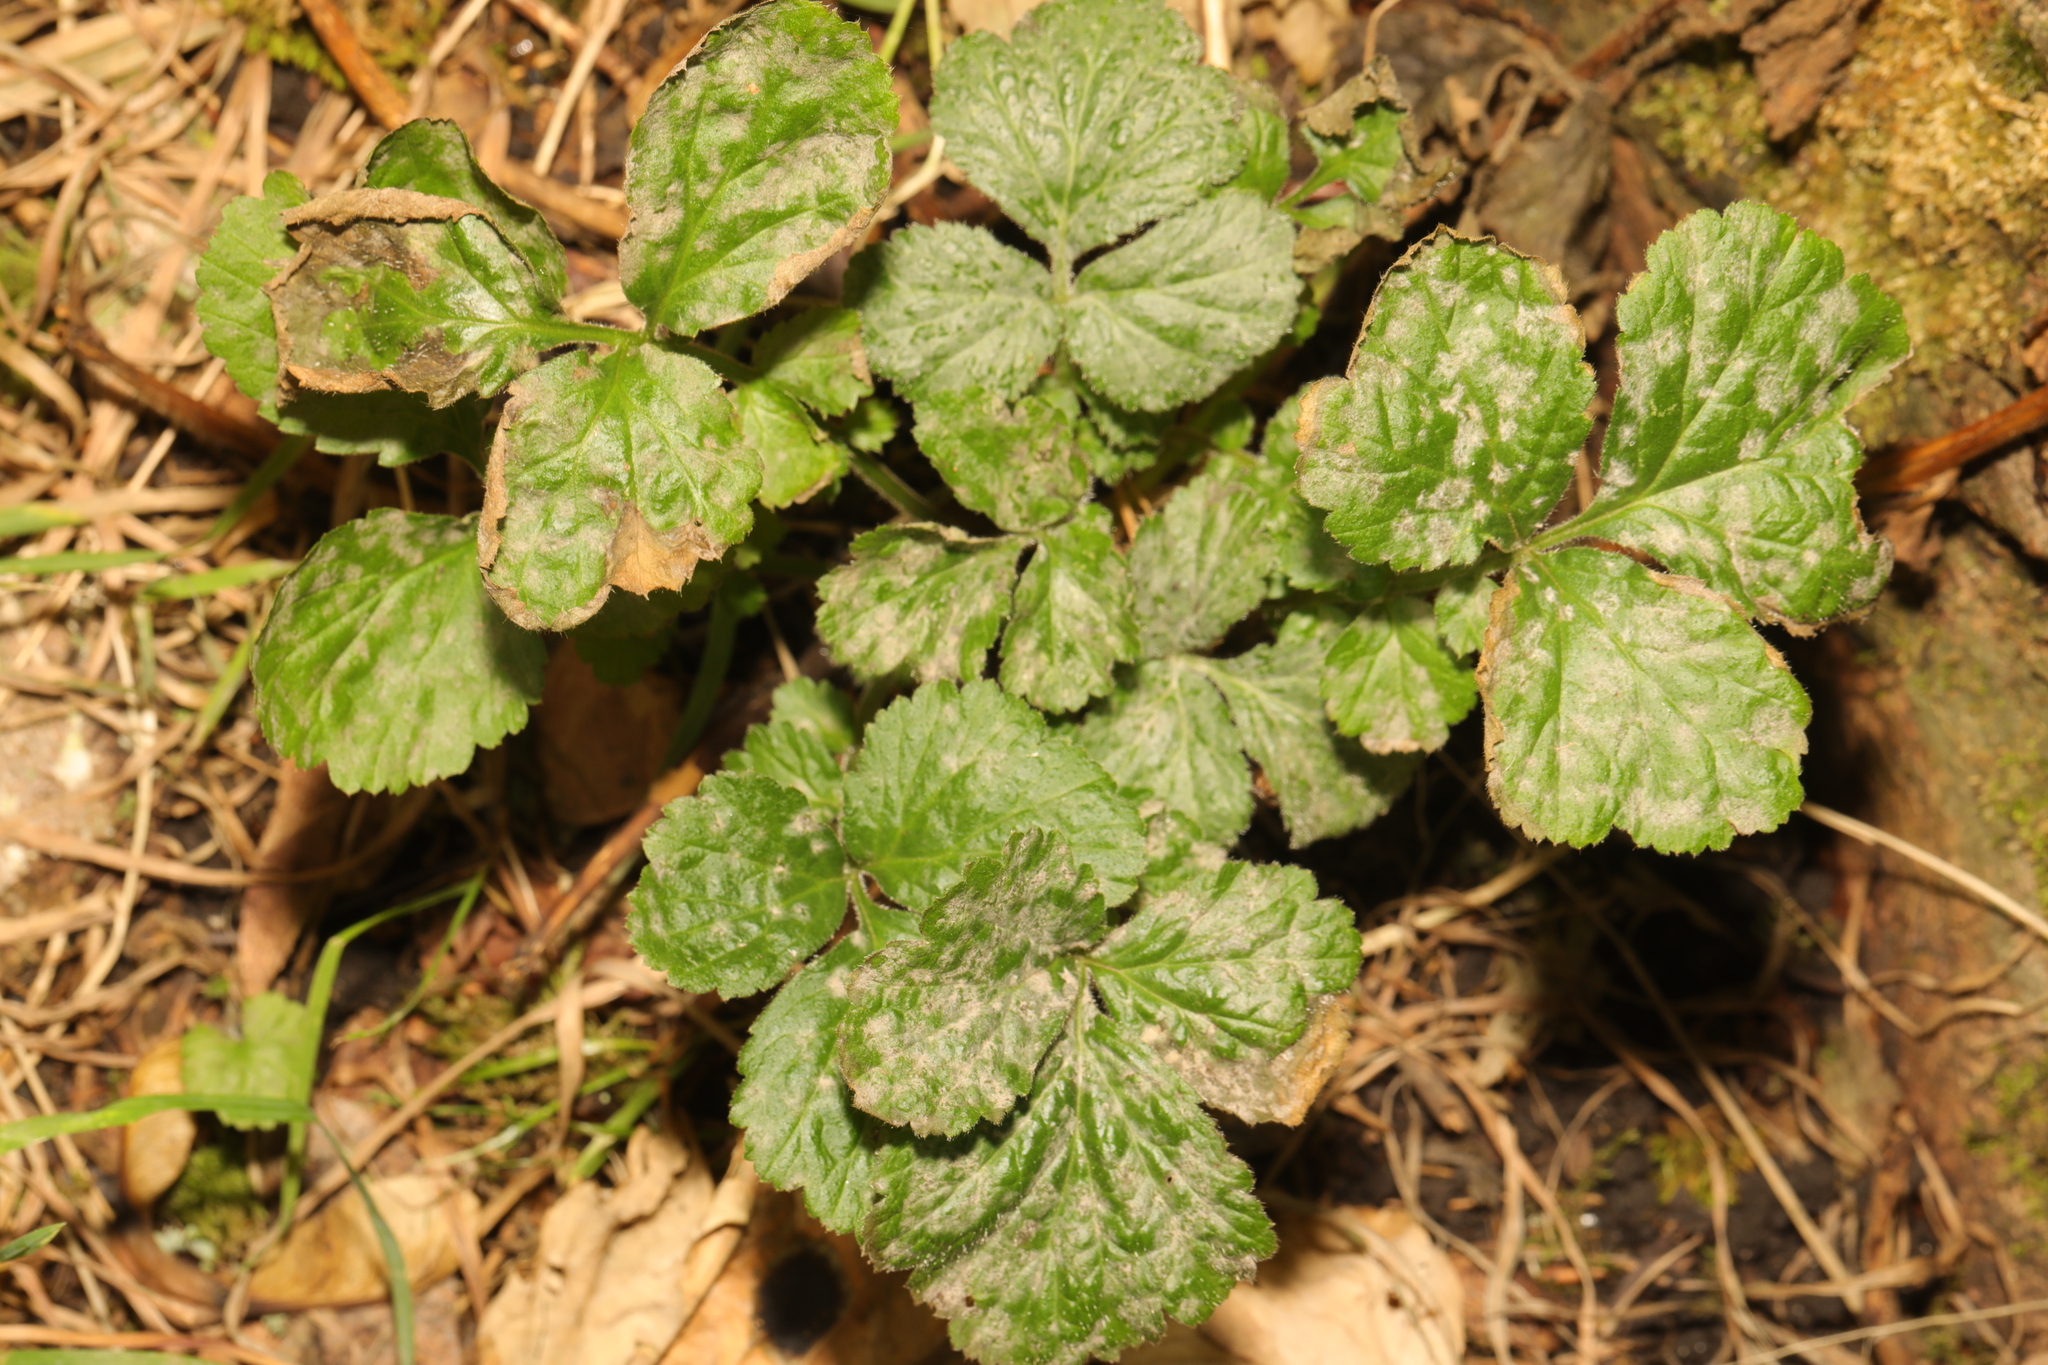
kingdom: Plantae
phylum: Tracheophyta
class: Magnoliopsida
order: Rosales
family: Rosaceae
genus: Geum
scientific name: Geum urbanum
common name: Wood avens
